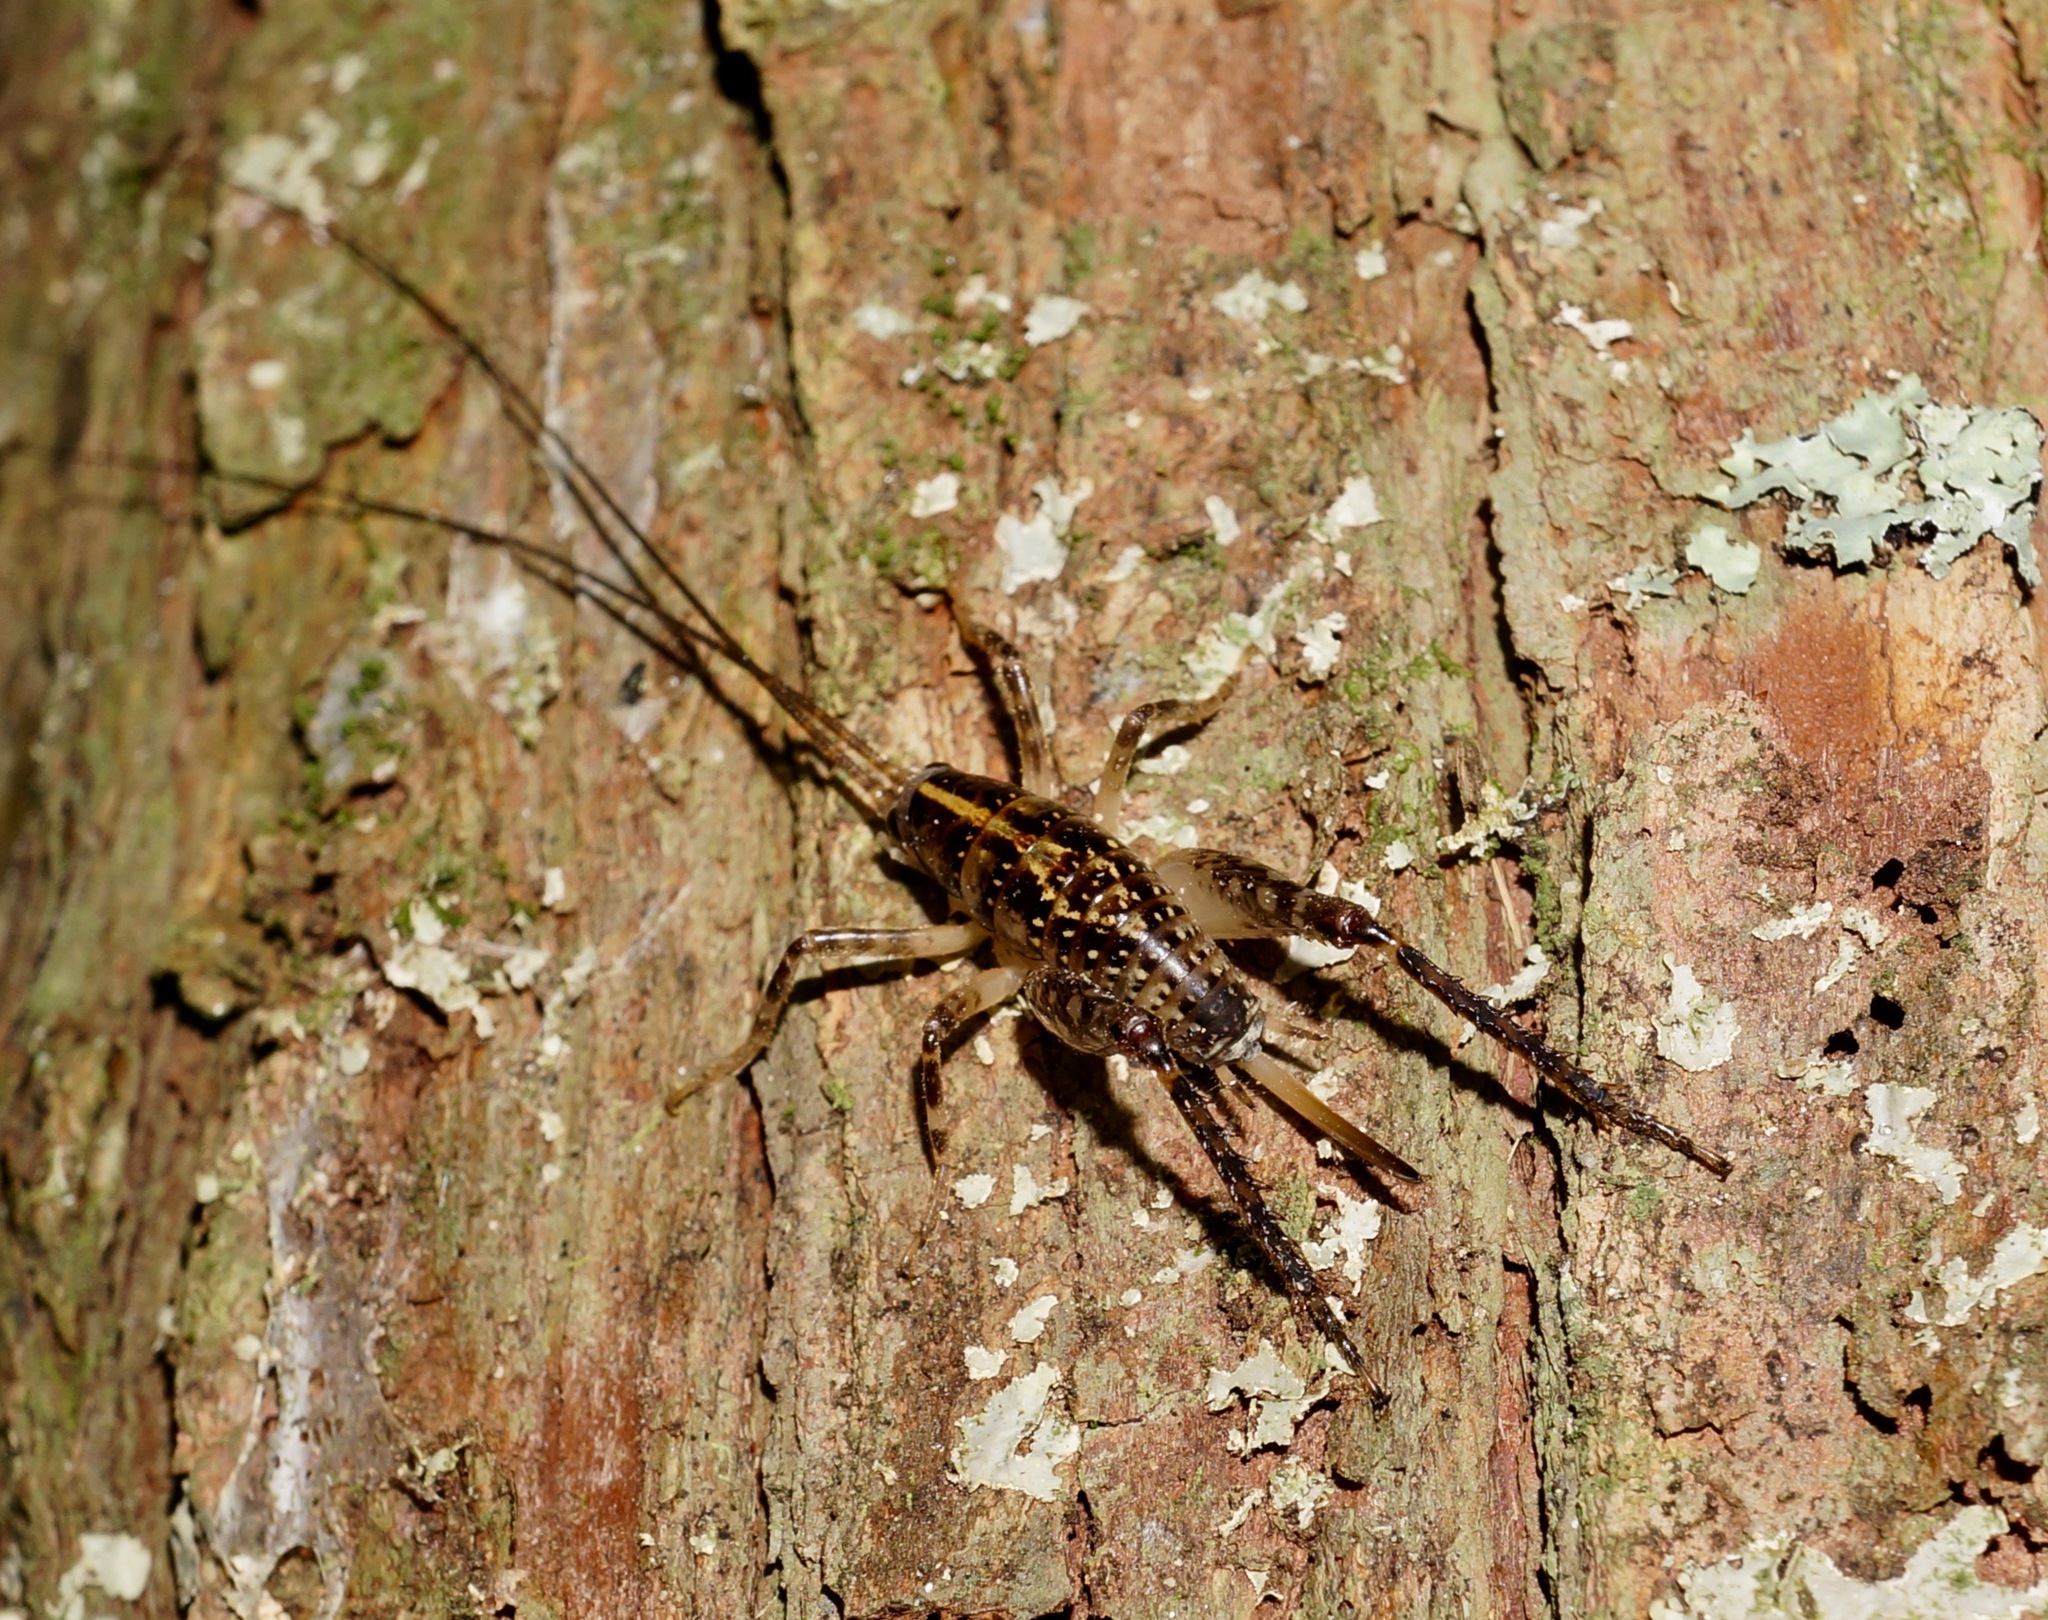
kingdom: Animalia
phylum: Arthropoda
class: Insecta
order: Orthoptera
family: Rhaphidophoridae
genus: Talitropsis
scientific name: Talitropsis sedilloti
